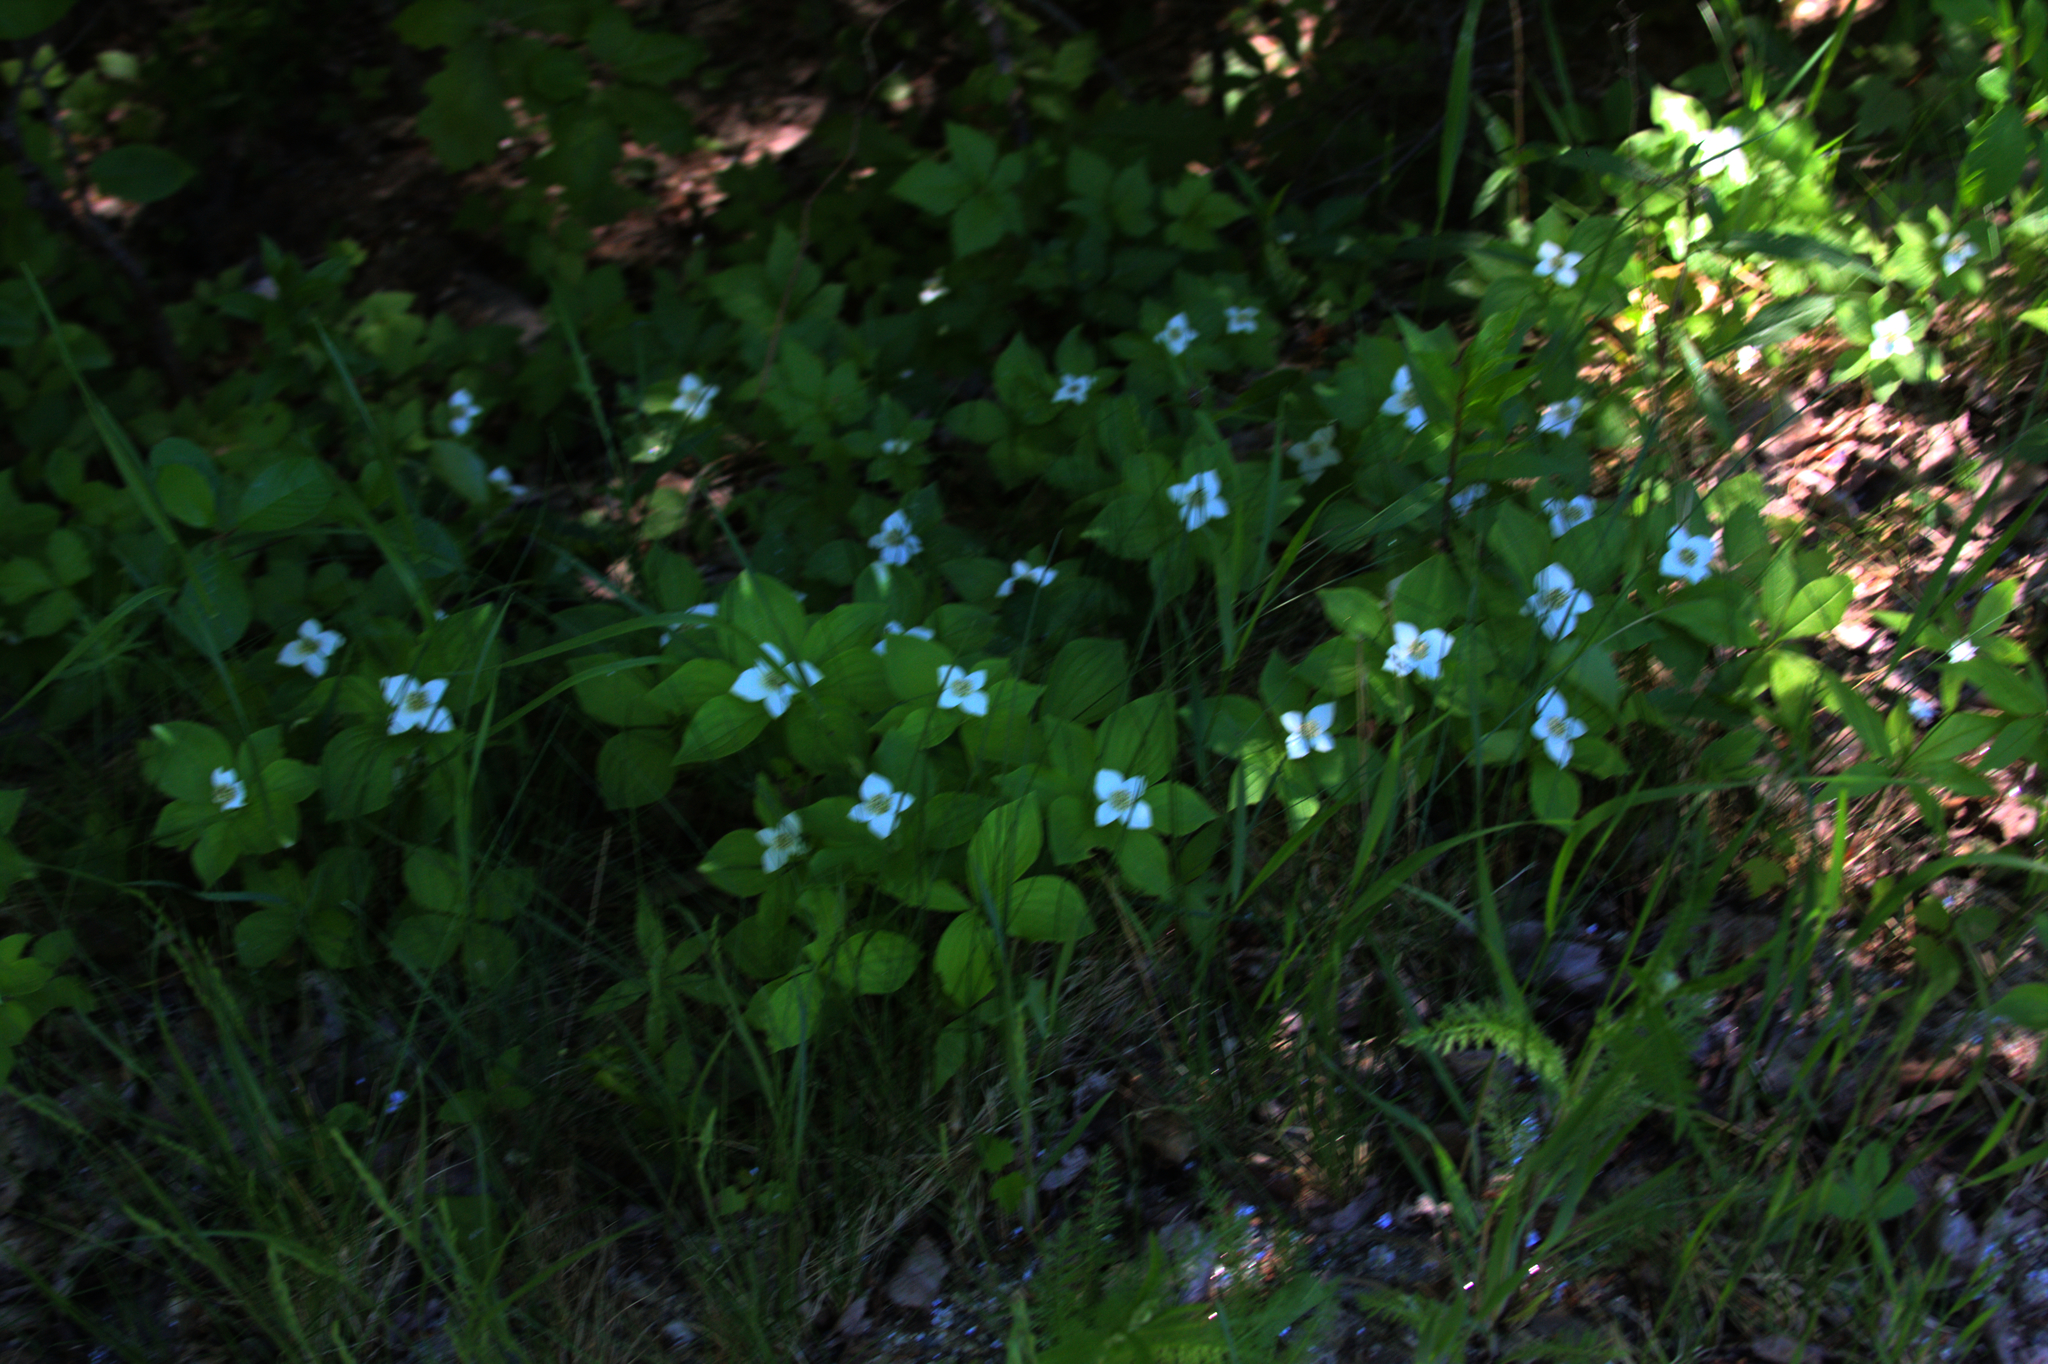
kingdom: Plantae
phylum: Tracheophyta
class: Magnoliopsida
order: Cornales
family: Cornaceae
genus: Cornus
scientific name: Cornus canadensis
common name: Creeping dogwood
